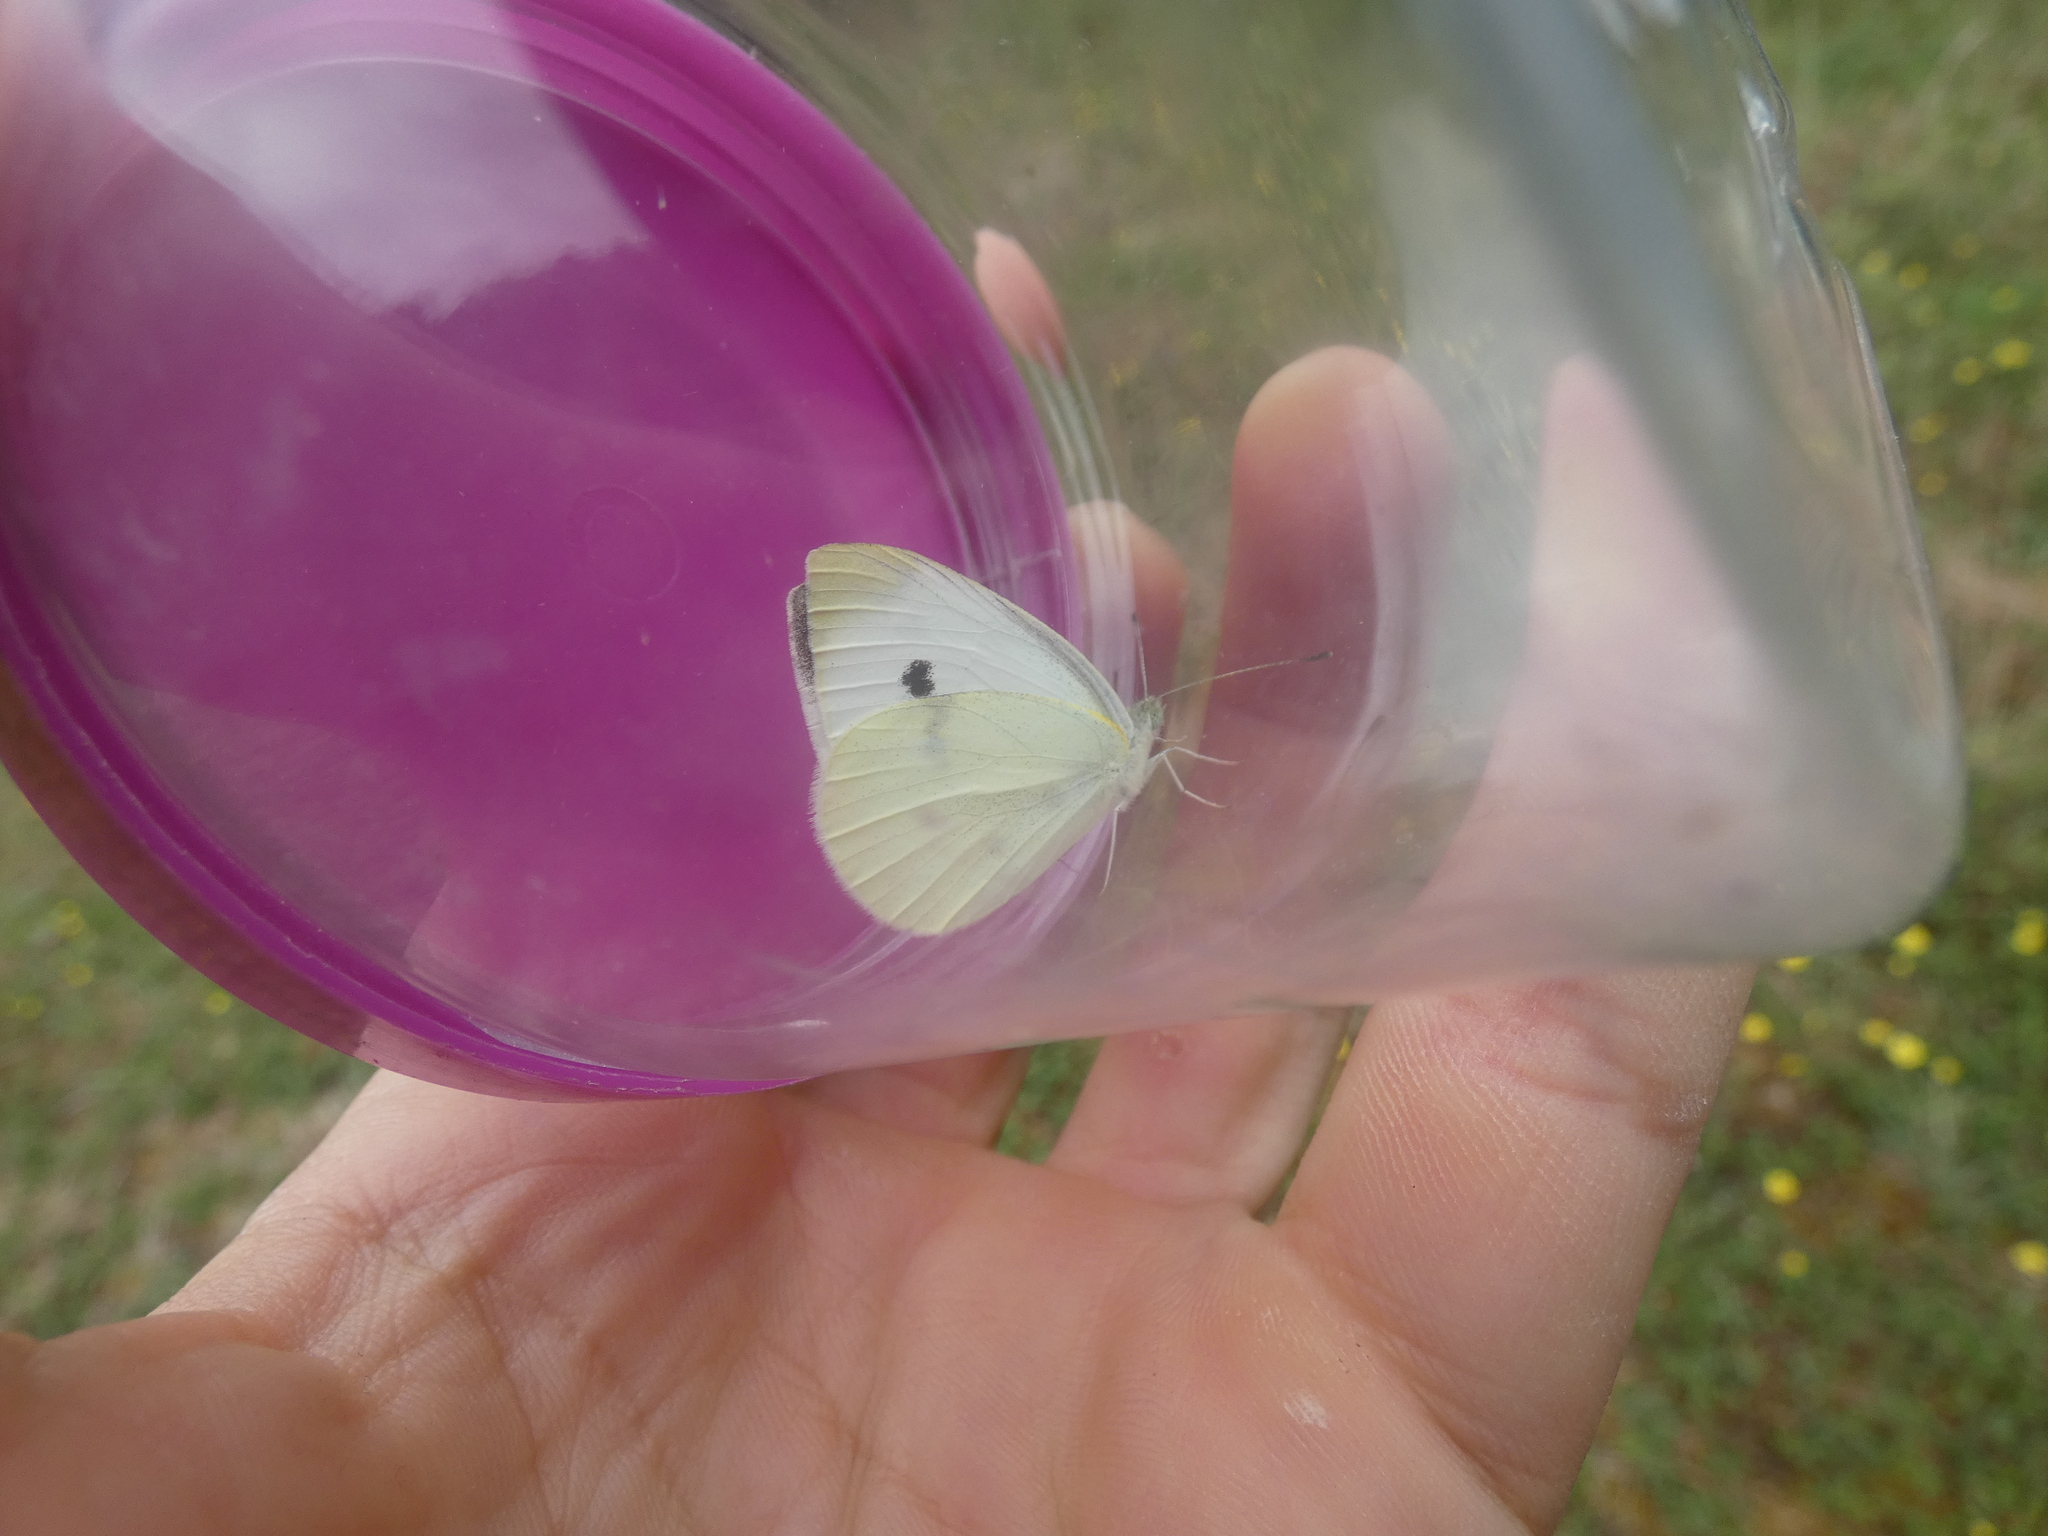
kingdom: Animalia
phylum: Arthropoda
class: Insecta
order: Lepidoptera
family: Pieridae
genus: Pieris
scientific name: Pieris rapae
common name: Small white
